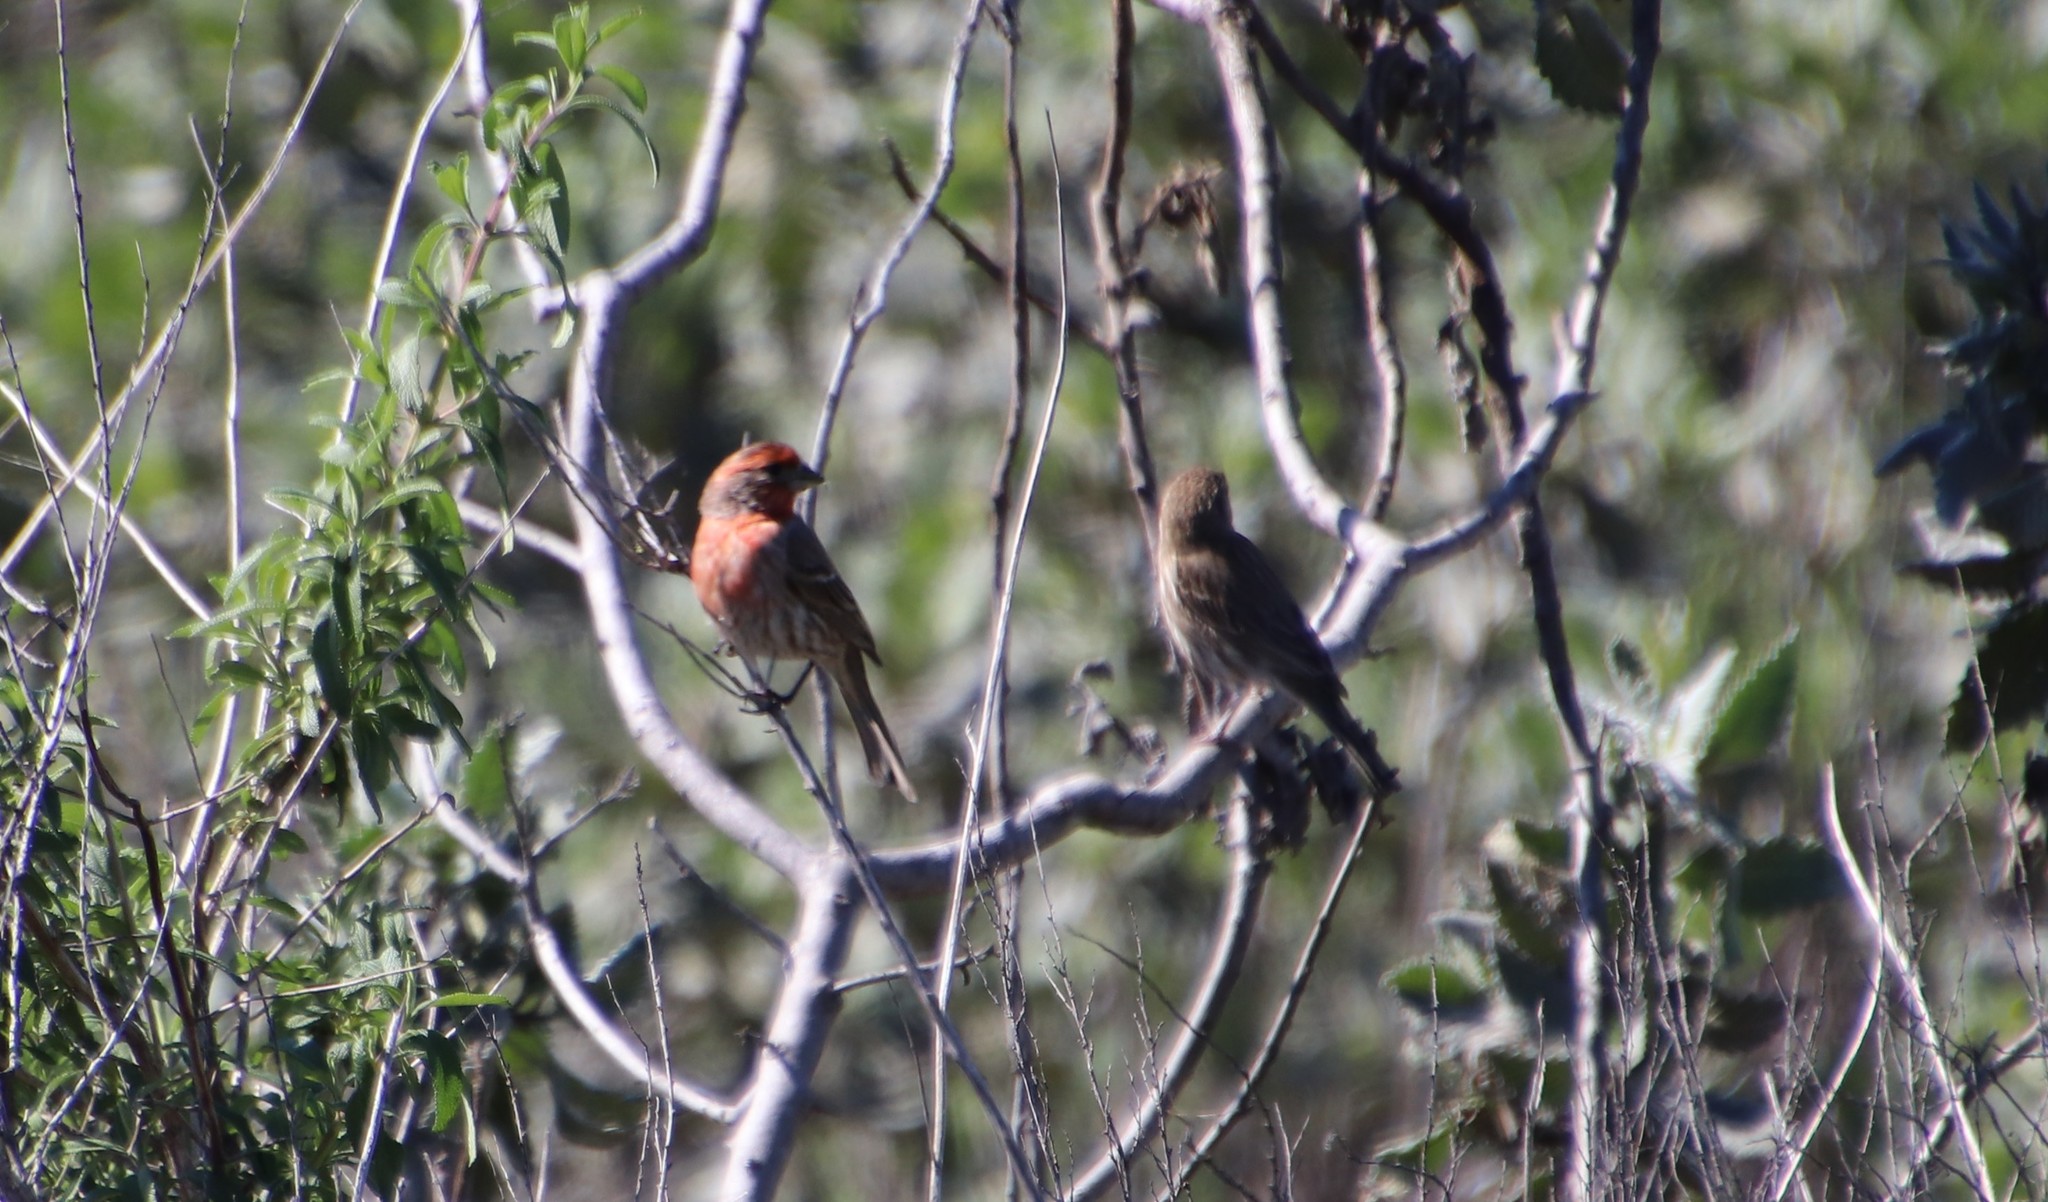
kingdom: Animalia
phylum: Chordata
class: Aves
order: Passeriformes
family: Fringillidae
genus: Haemorhous
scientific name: Haemorhous mexicanus
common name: House finch
